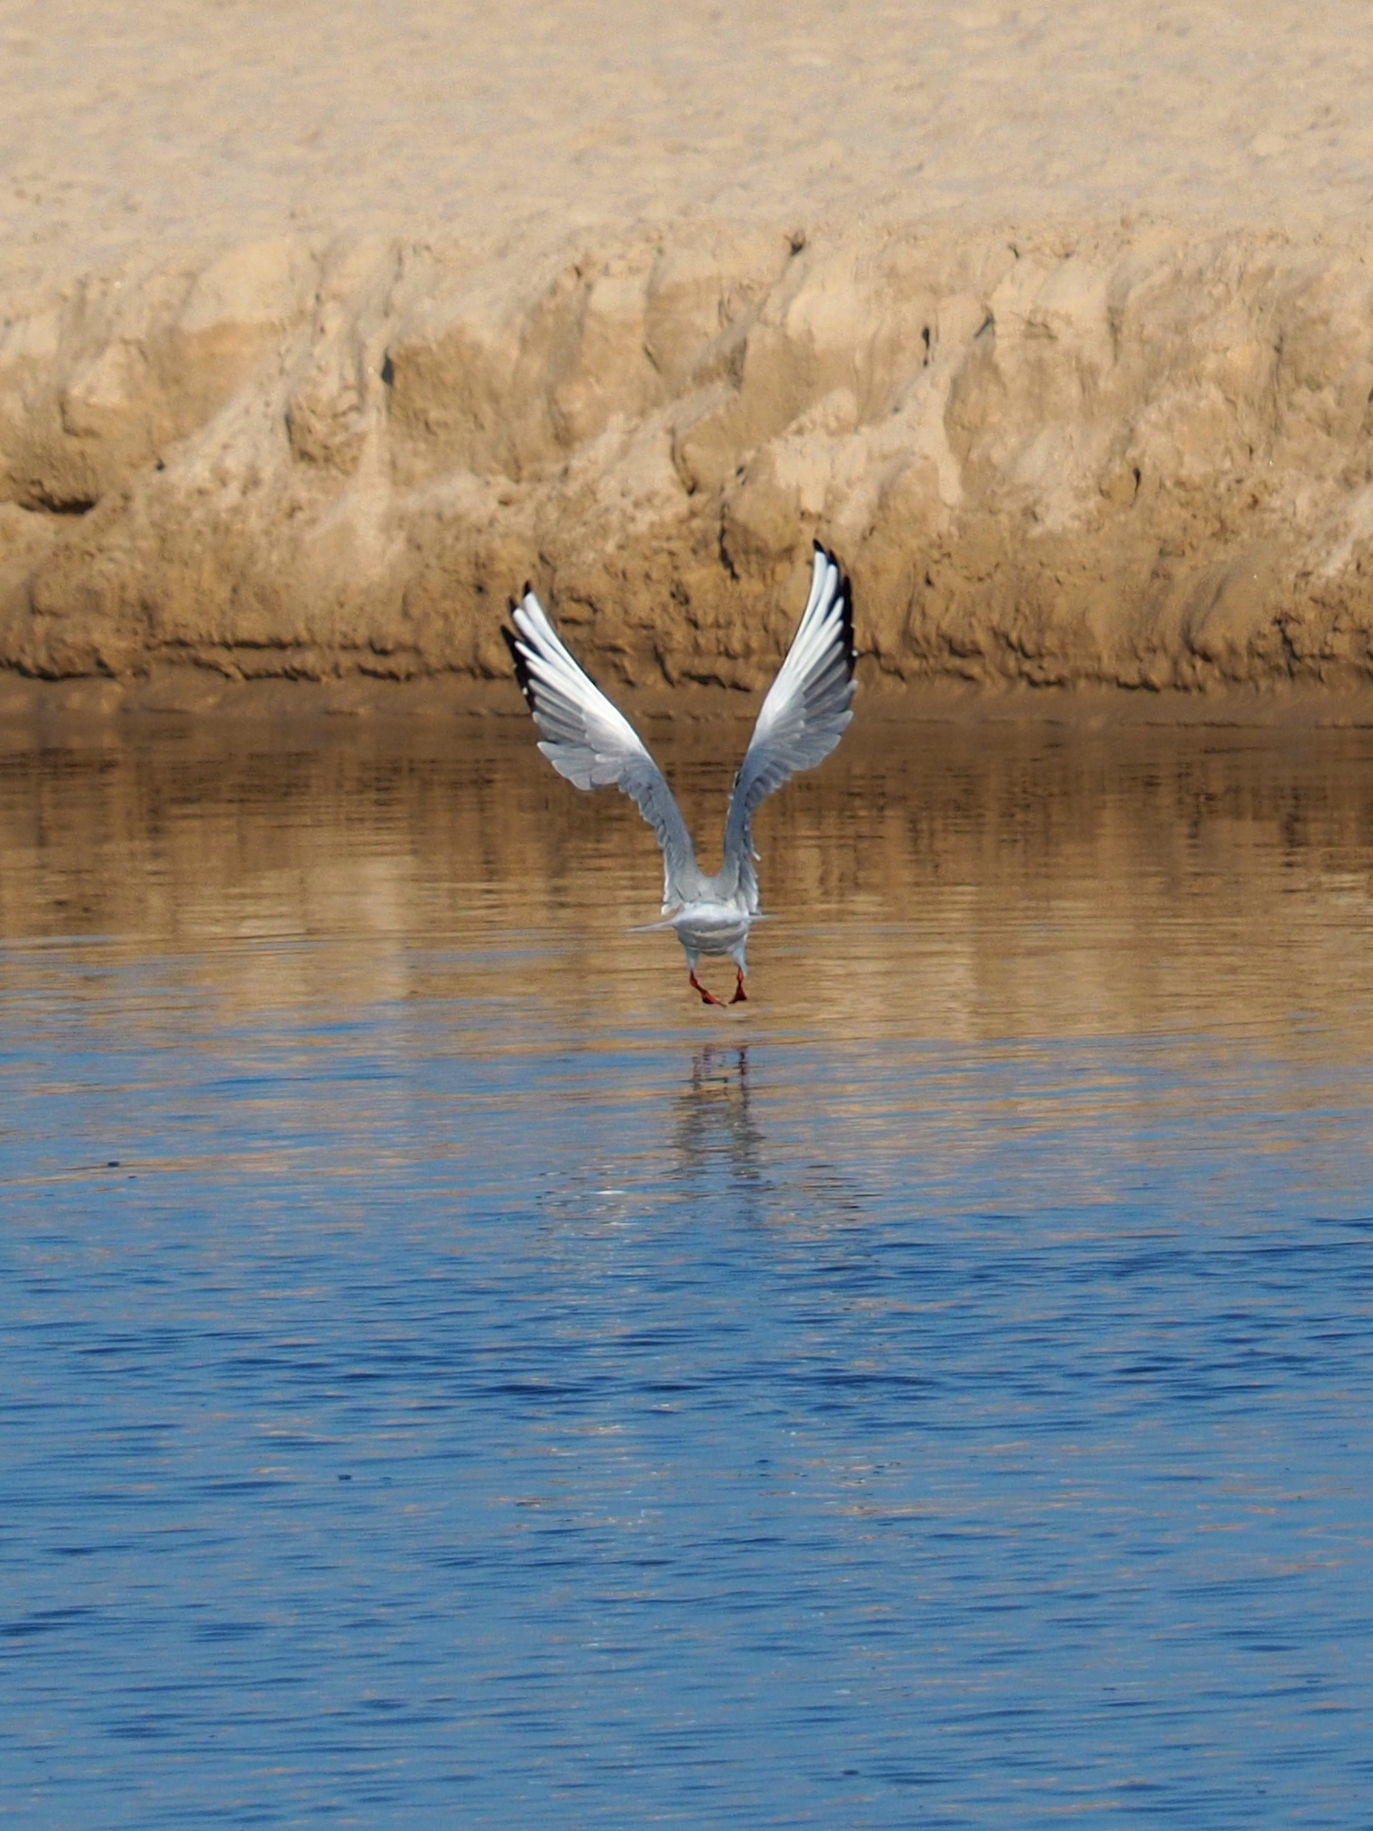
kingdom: Animalia
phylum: Chordata
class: Aves
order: Charadriiformes
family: Laridae
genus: Chroicocephalus
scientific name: Chroicocephalus ridibundus
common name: Black-headed gull
